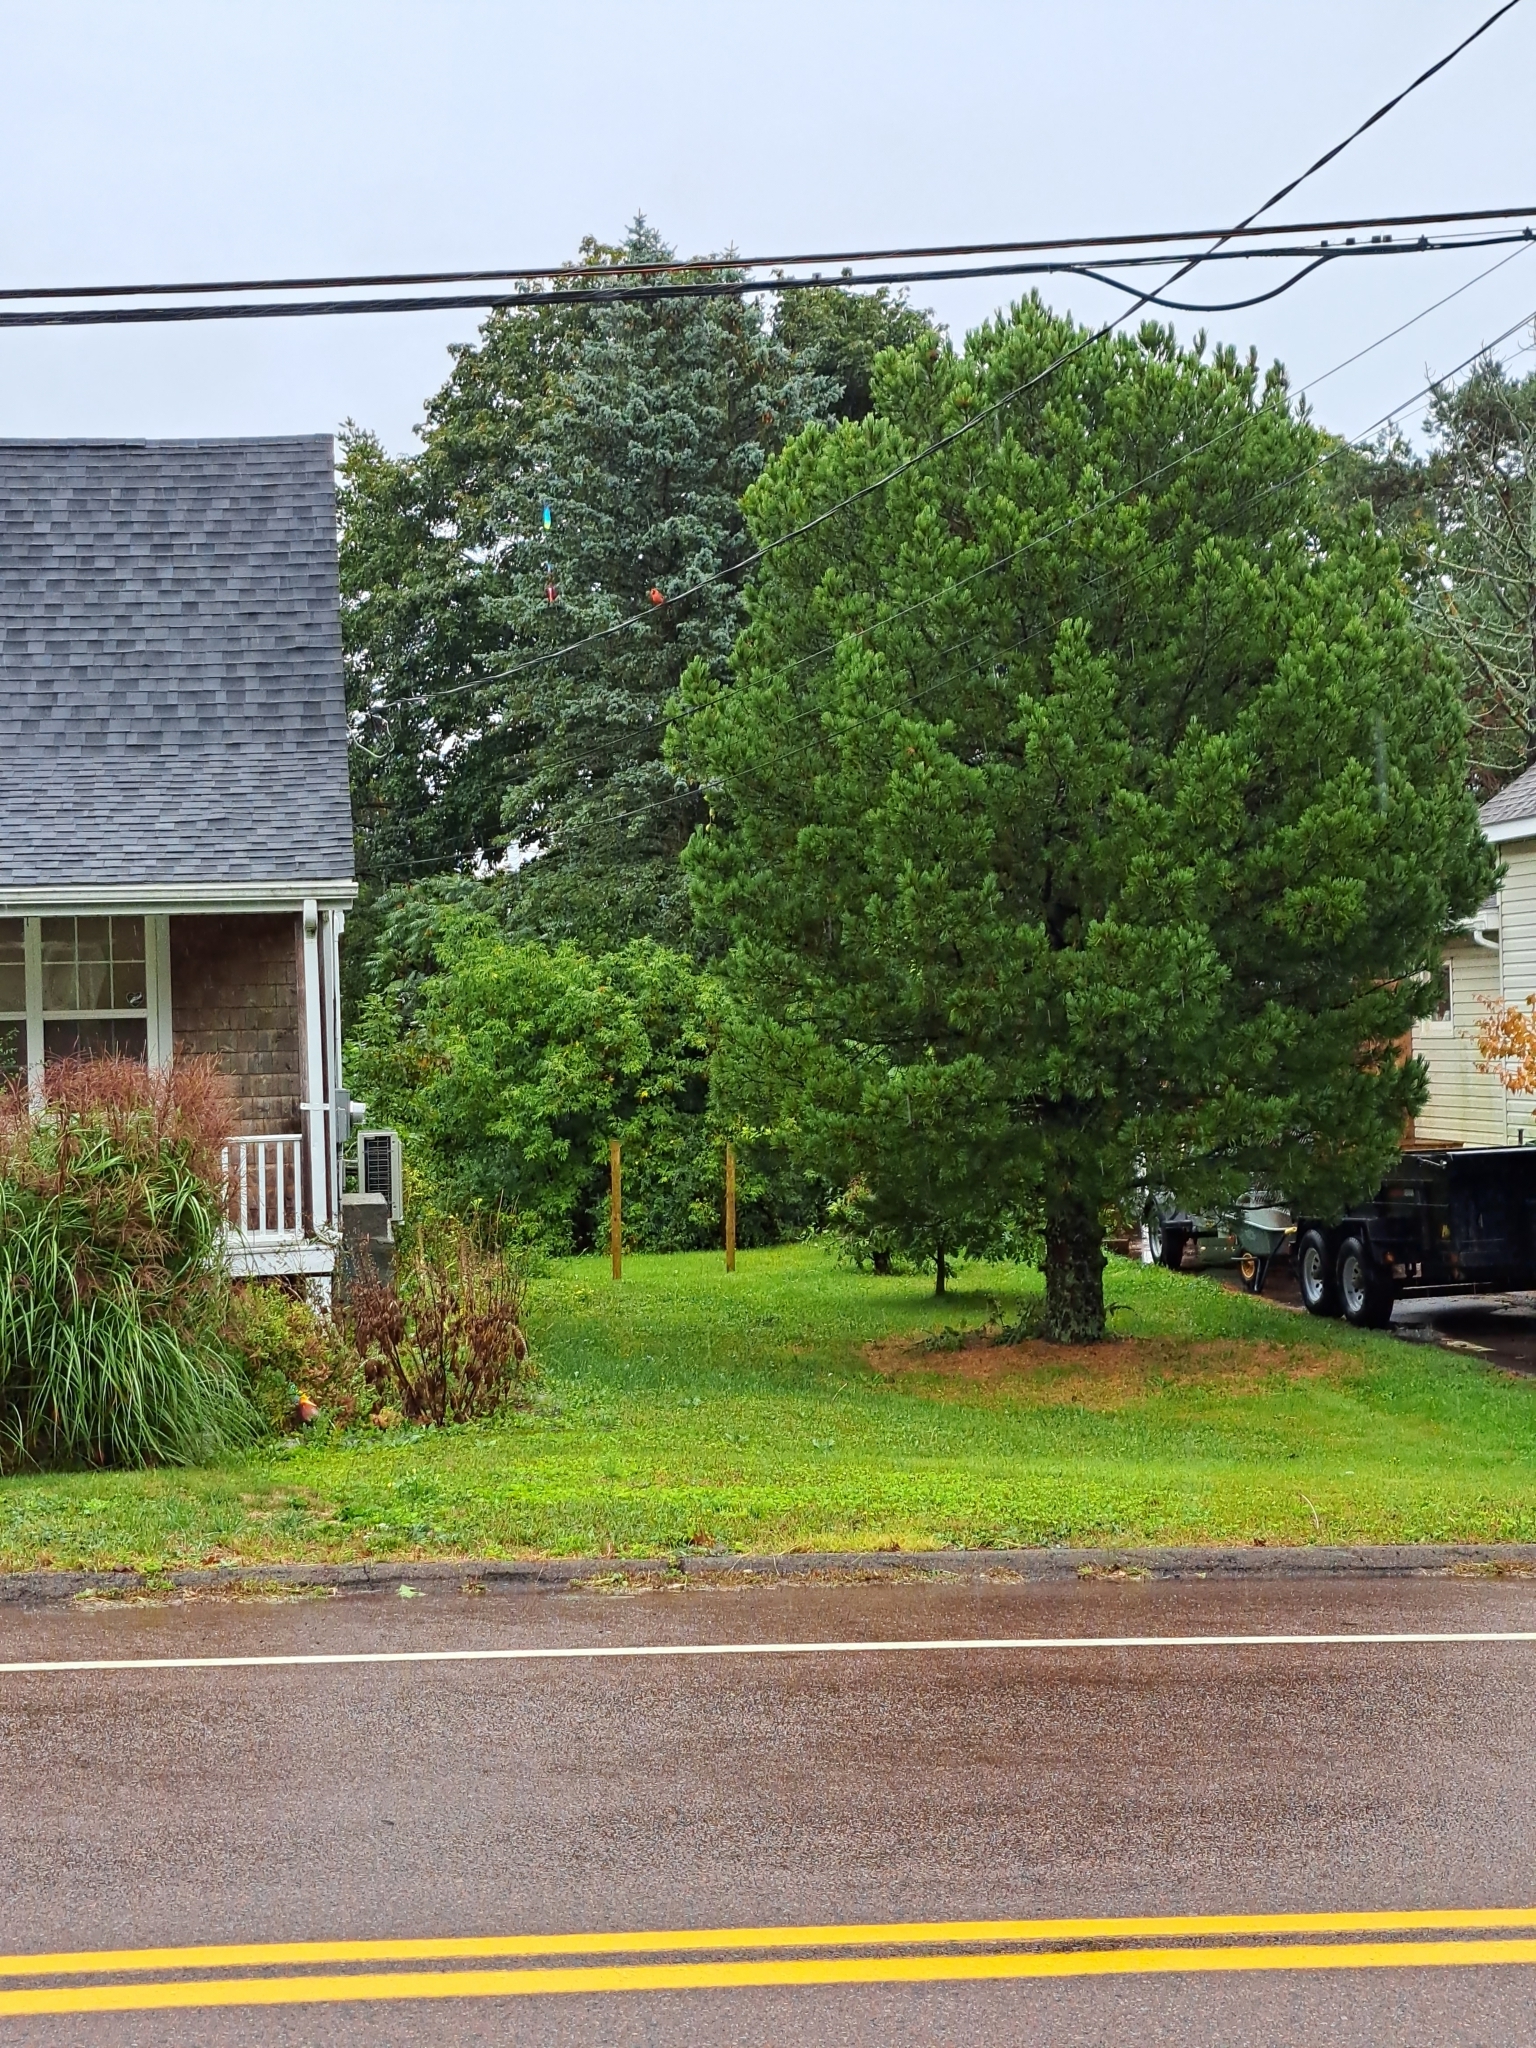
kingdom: Animalia
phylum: Chordata
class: Aves
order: Passeriformes
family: Cardinalidae
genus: Cardinalis
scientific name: Cardinalis cardinalis
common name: Northern cardinal
